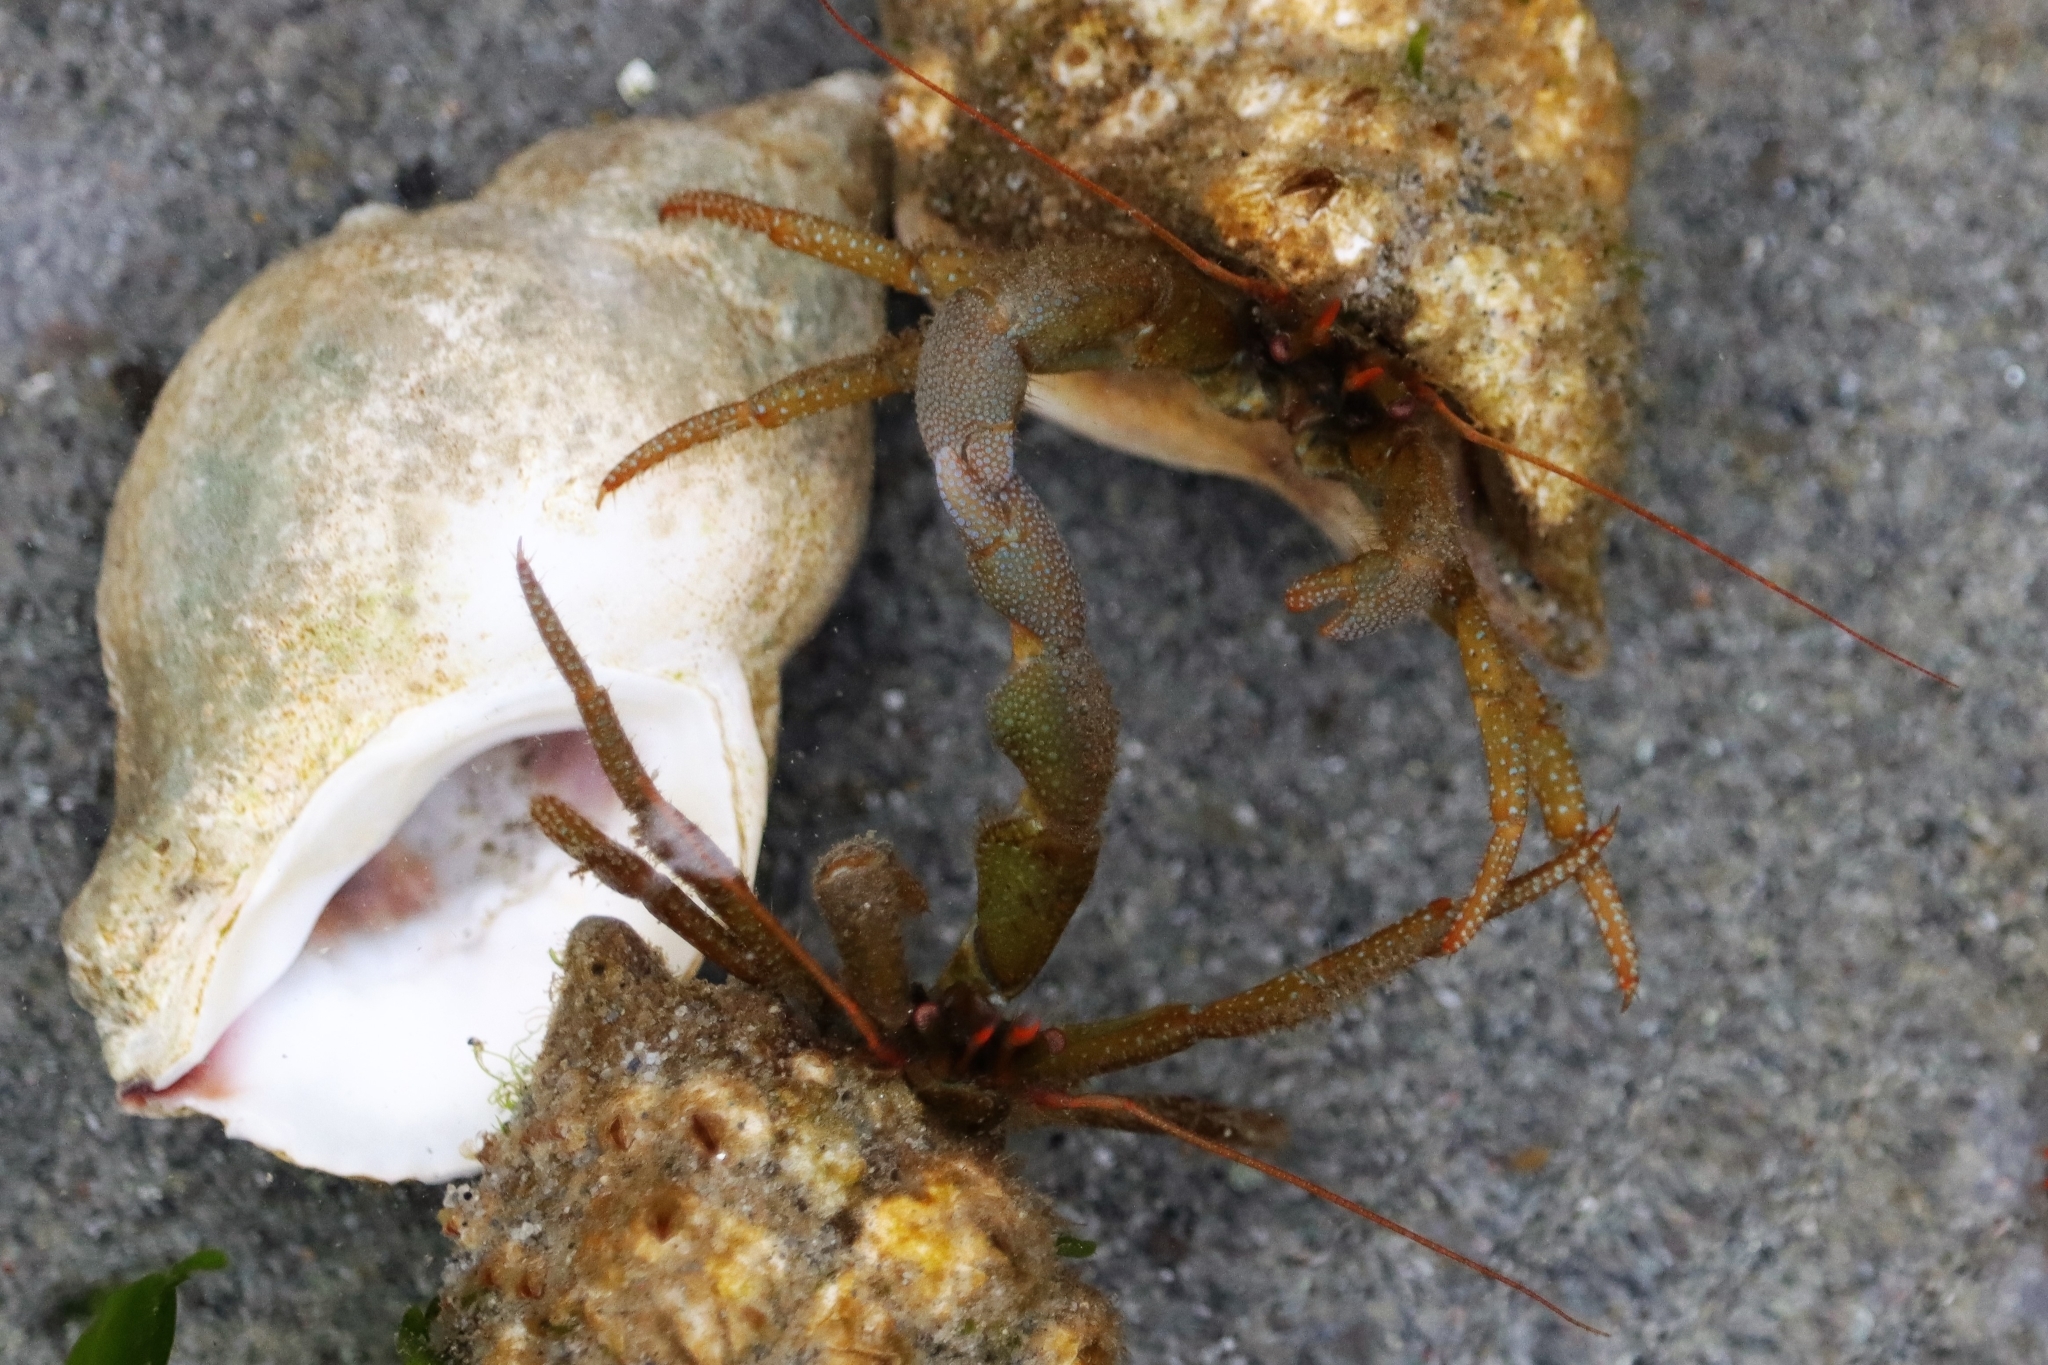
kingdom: Animalia
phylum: Arthropoda
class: Malacostraca
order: Decapoda
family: Paguridae
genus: Pagurus
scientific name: Pagurus granosimanus
